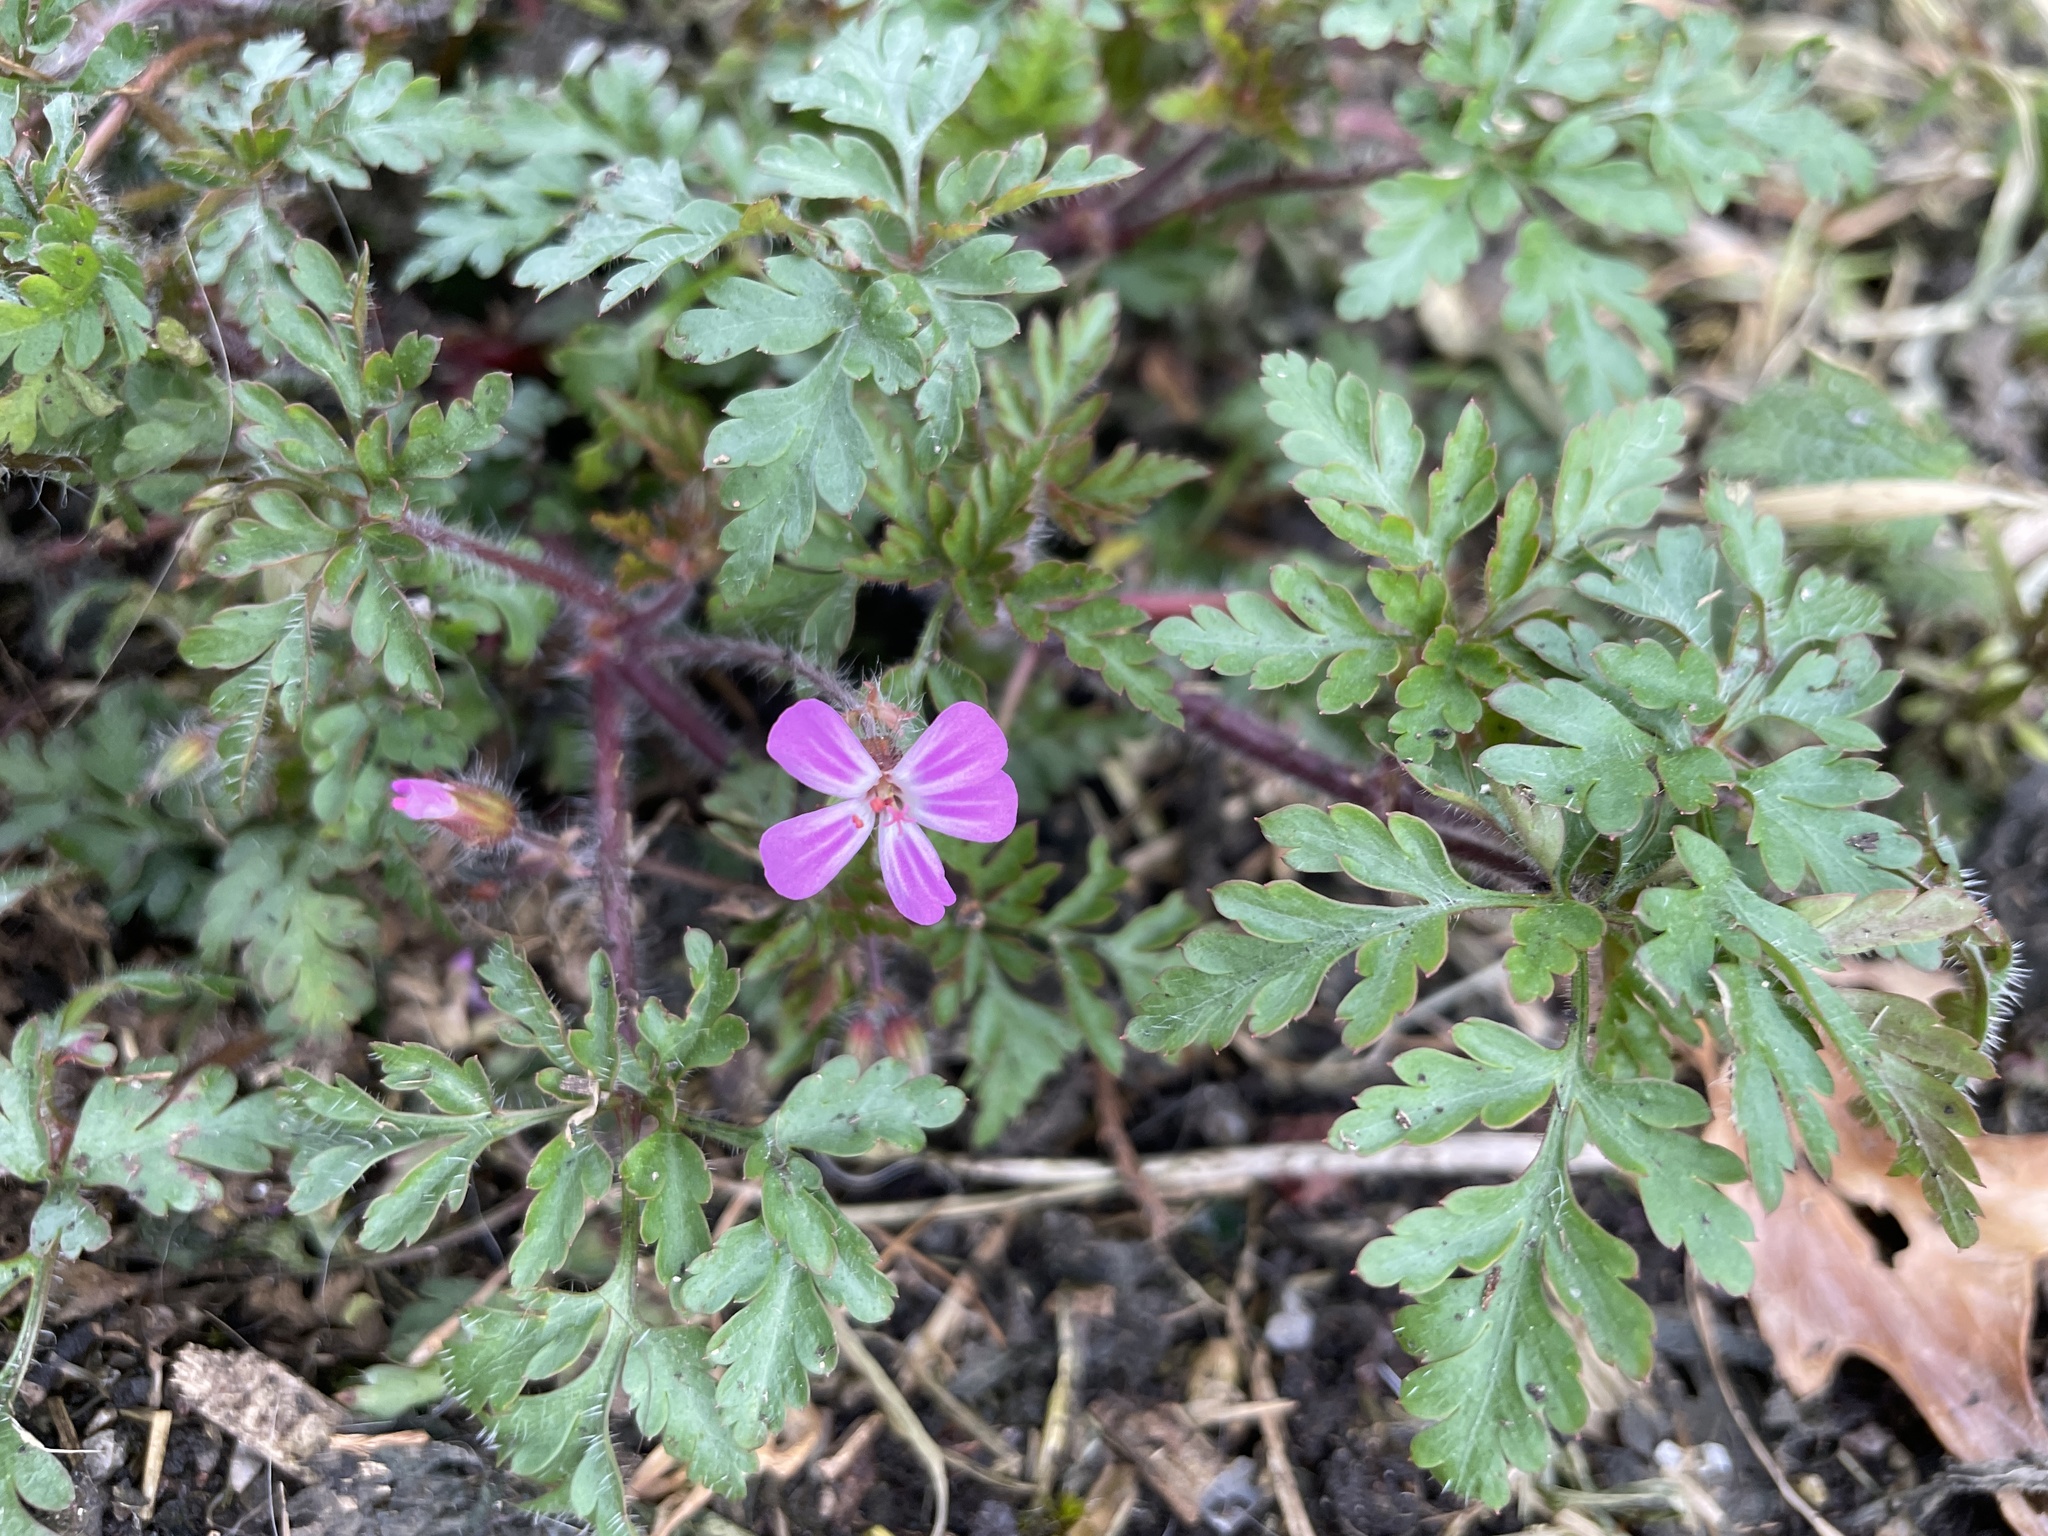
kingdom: Plantae
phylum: Tracheophyta
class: Magnoliopsida
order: Geraniales
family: Geraniaceae
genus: Geranium
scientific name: Geranium robertianum
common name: Herb-robert
